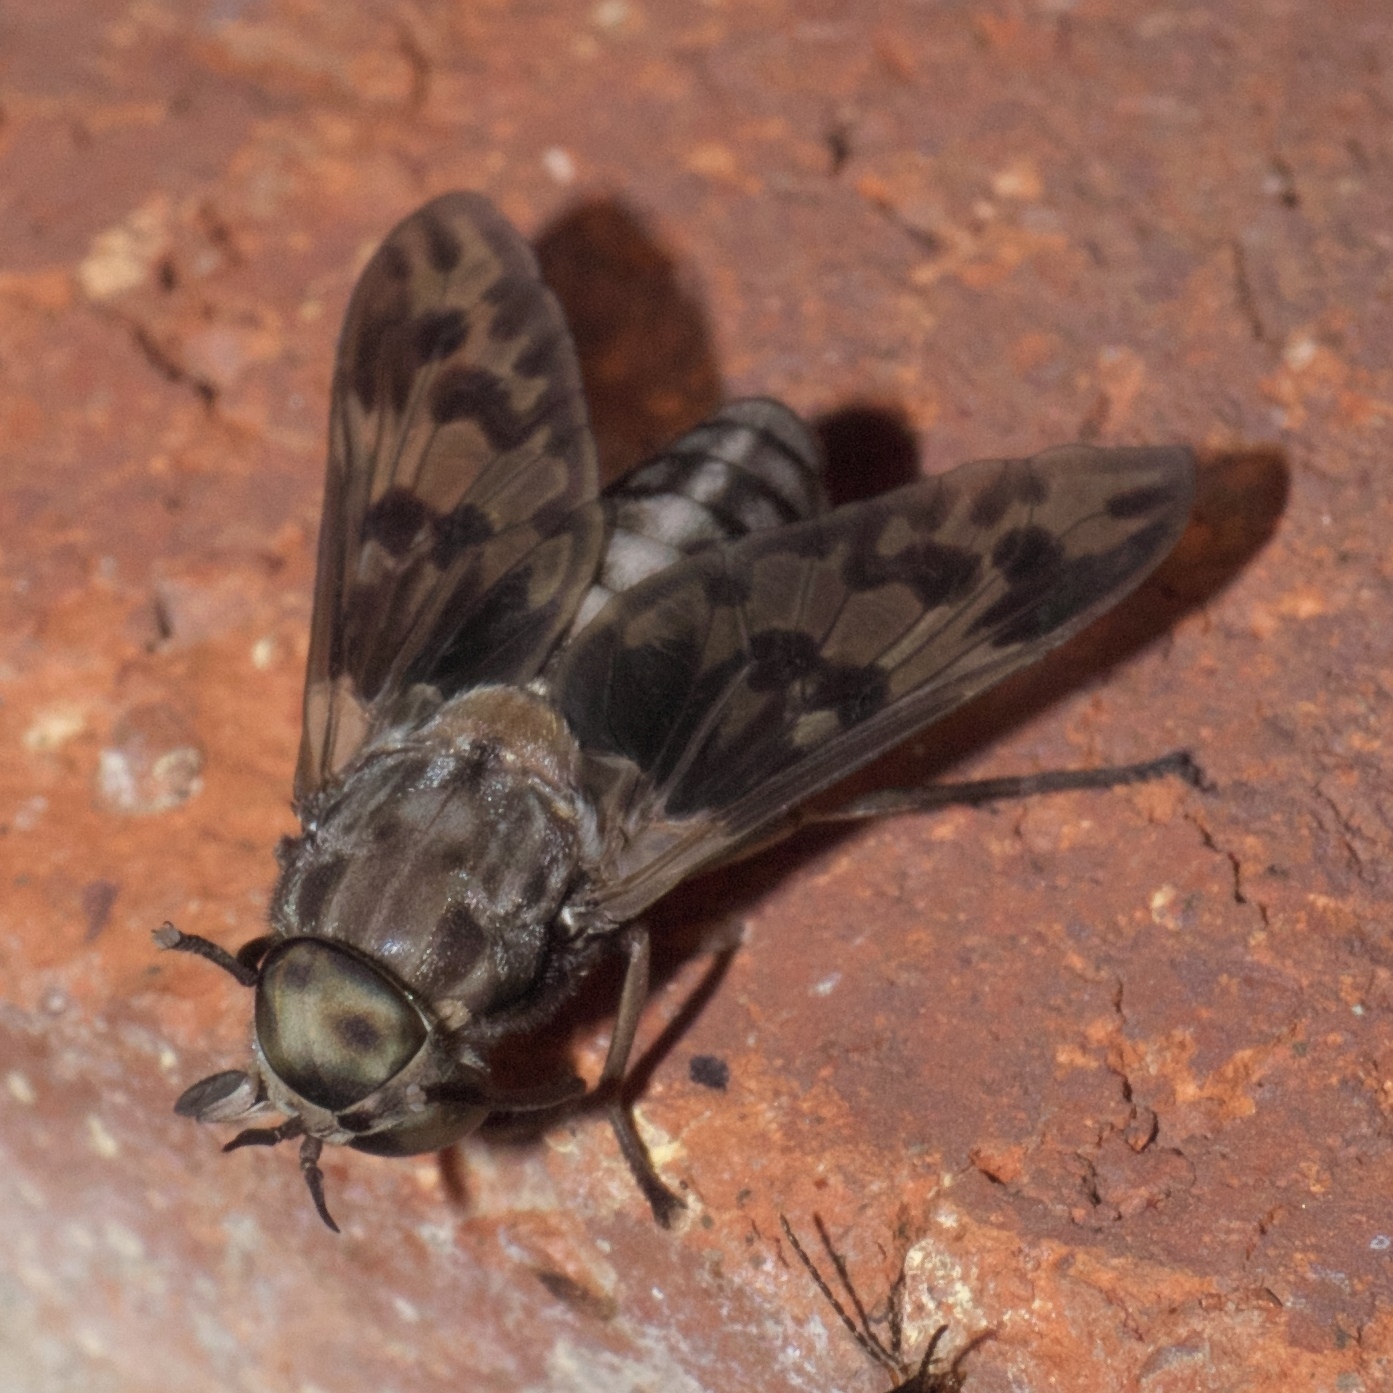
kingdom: Animalia
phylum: Arthropoda
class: Insecta
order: Diptera
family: Tabanidae
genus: Tabanus
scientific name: Tabanus venustus
